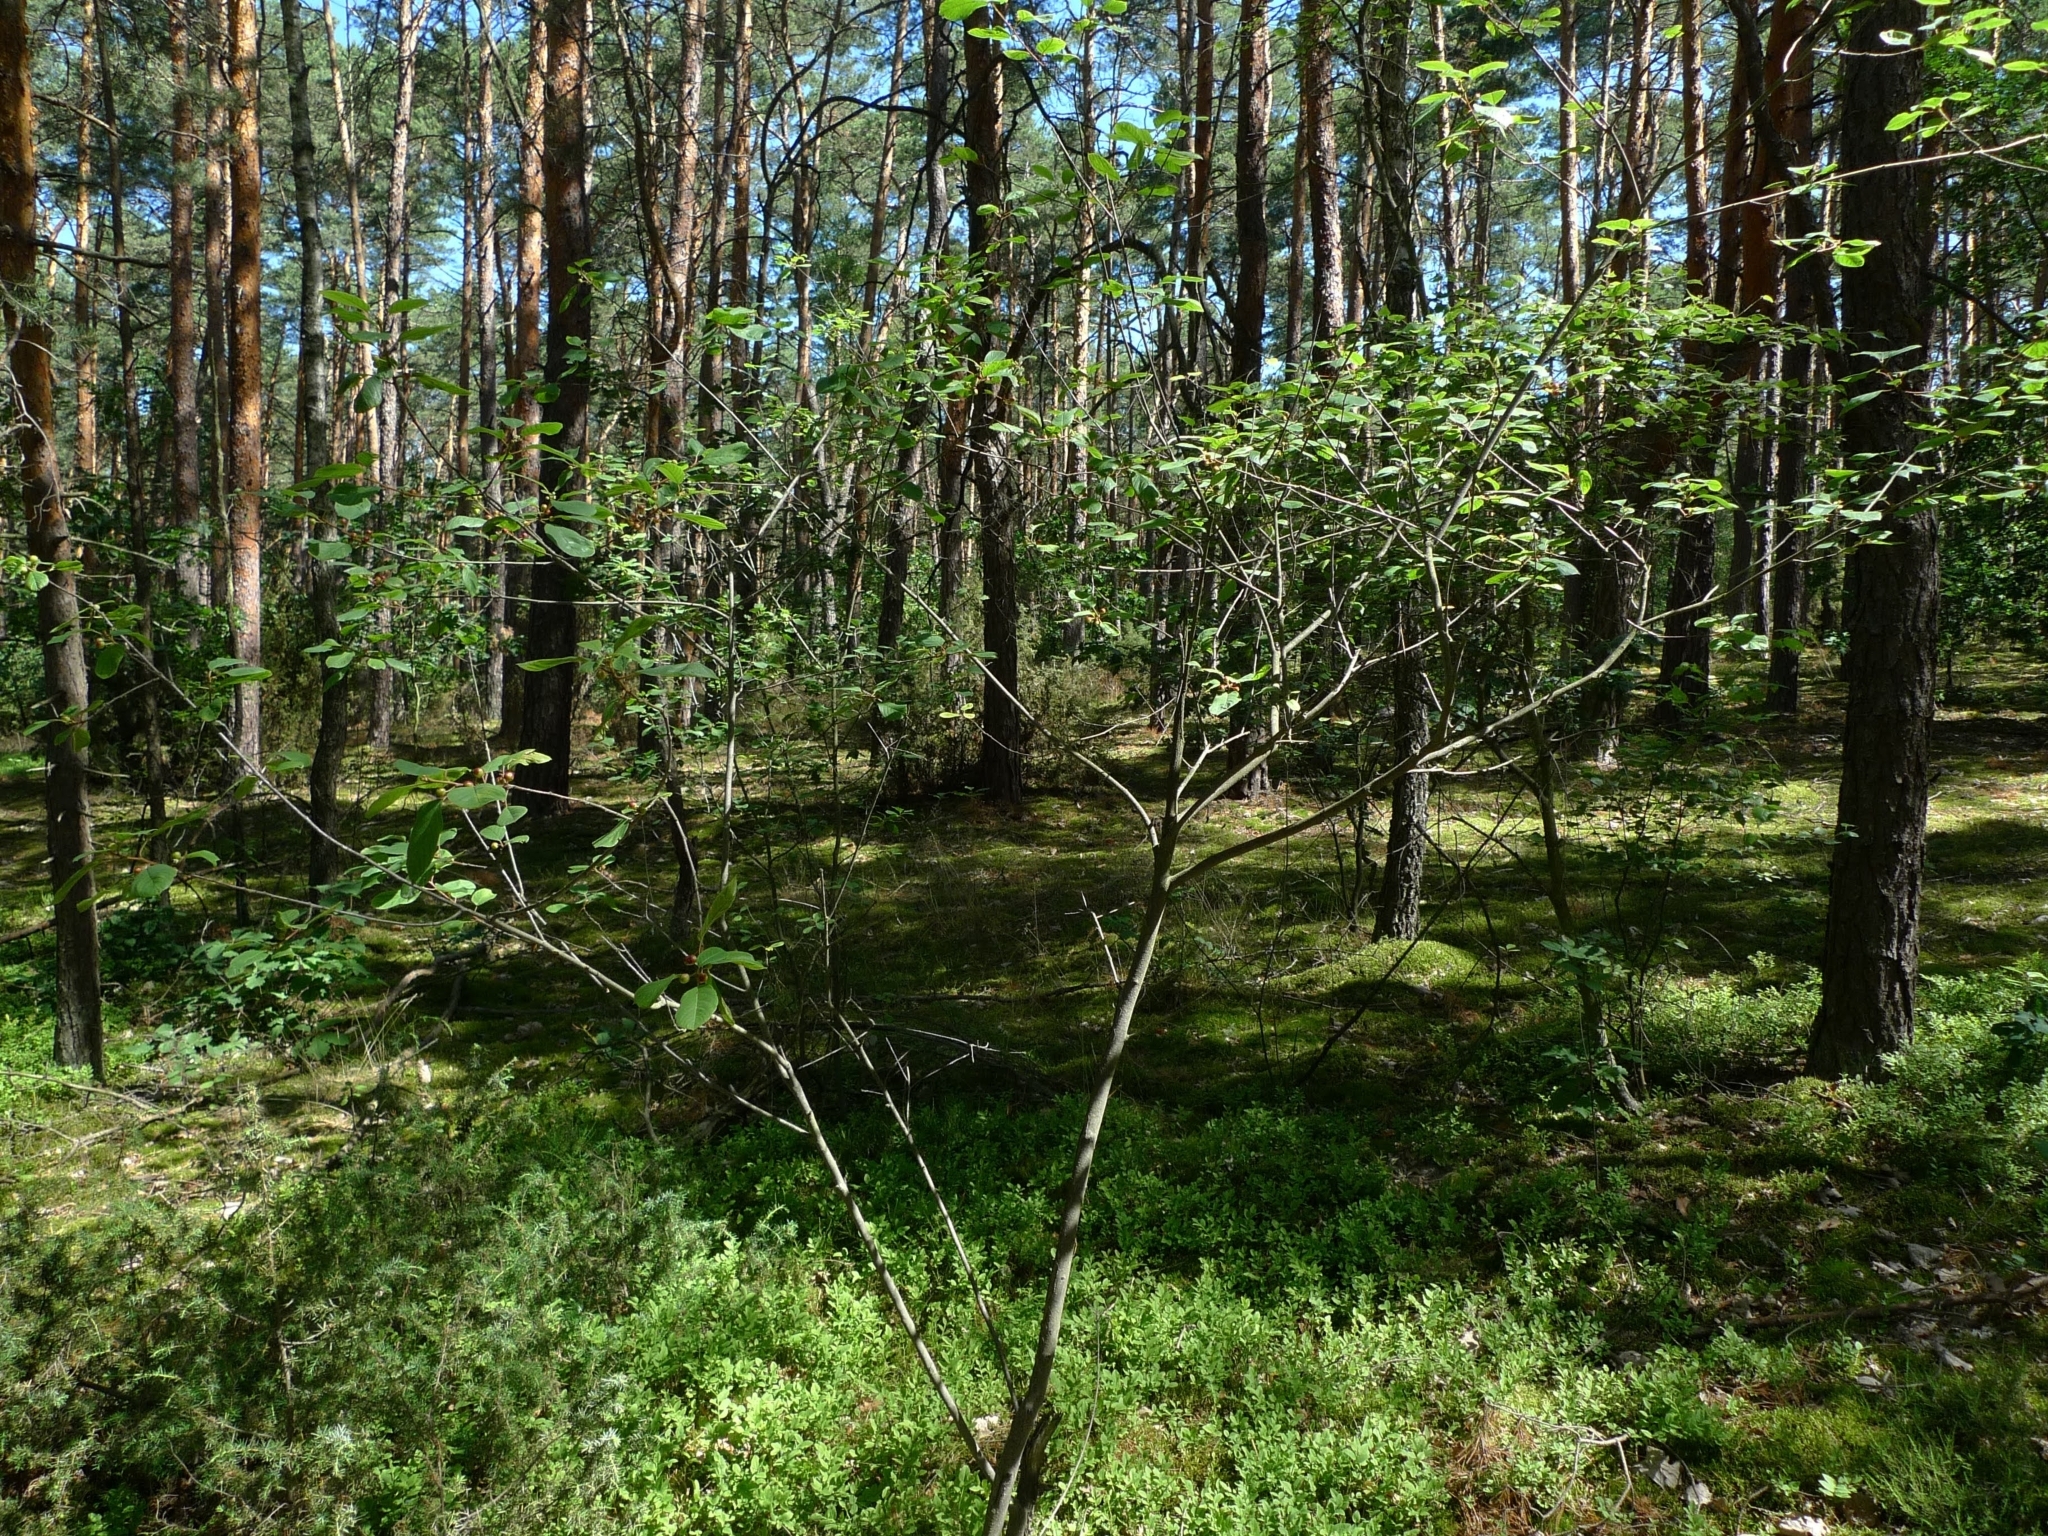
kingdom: Plantae
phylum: Tracheophyta
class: Magnoliopsida
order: Rosales
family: Rhamnaceae
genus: Frangula
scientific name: Frangula alnus
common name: Alder buckthorn
